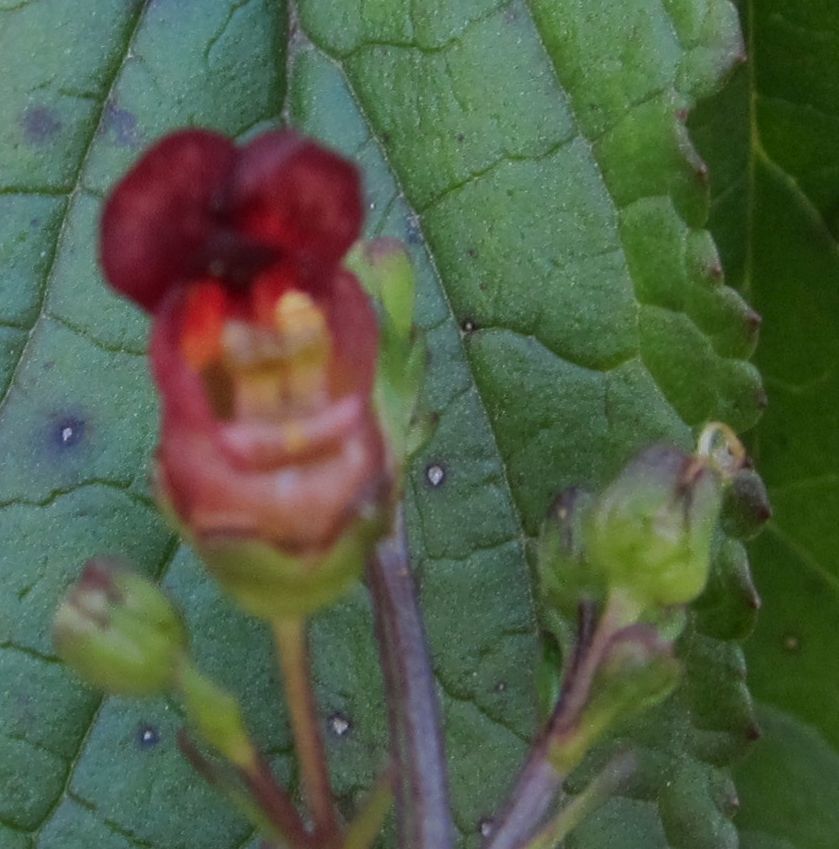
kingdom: Plantae
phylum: Tracheophyta
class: Magnoliopsida
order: Lamiales
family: Scrophulariaceae
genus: Scrophularia
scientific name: Scrophularia auriculata
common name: Water betony
